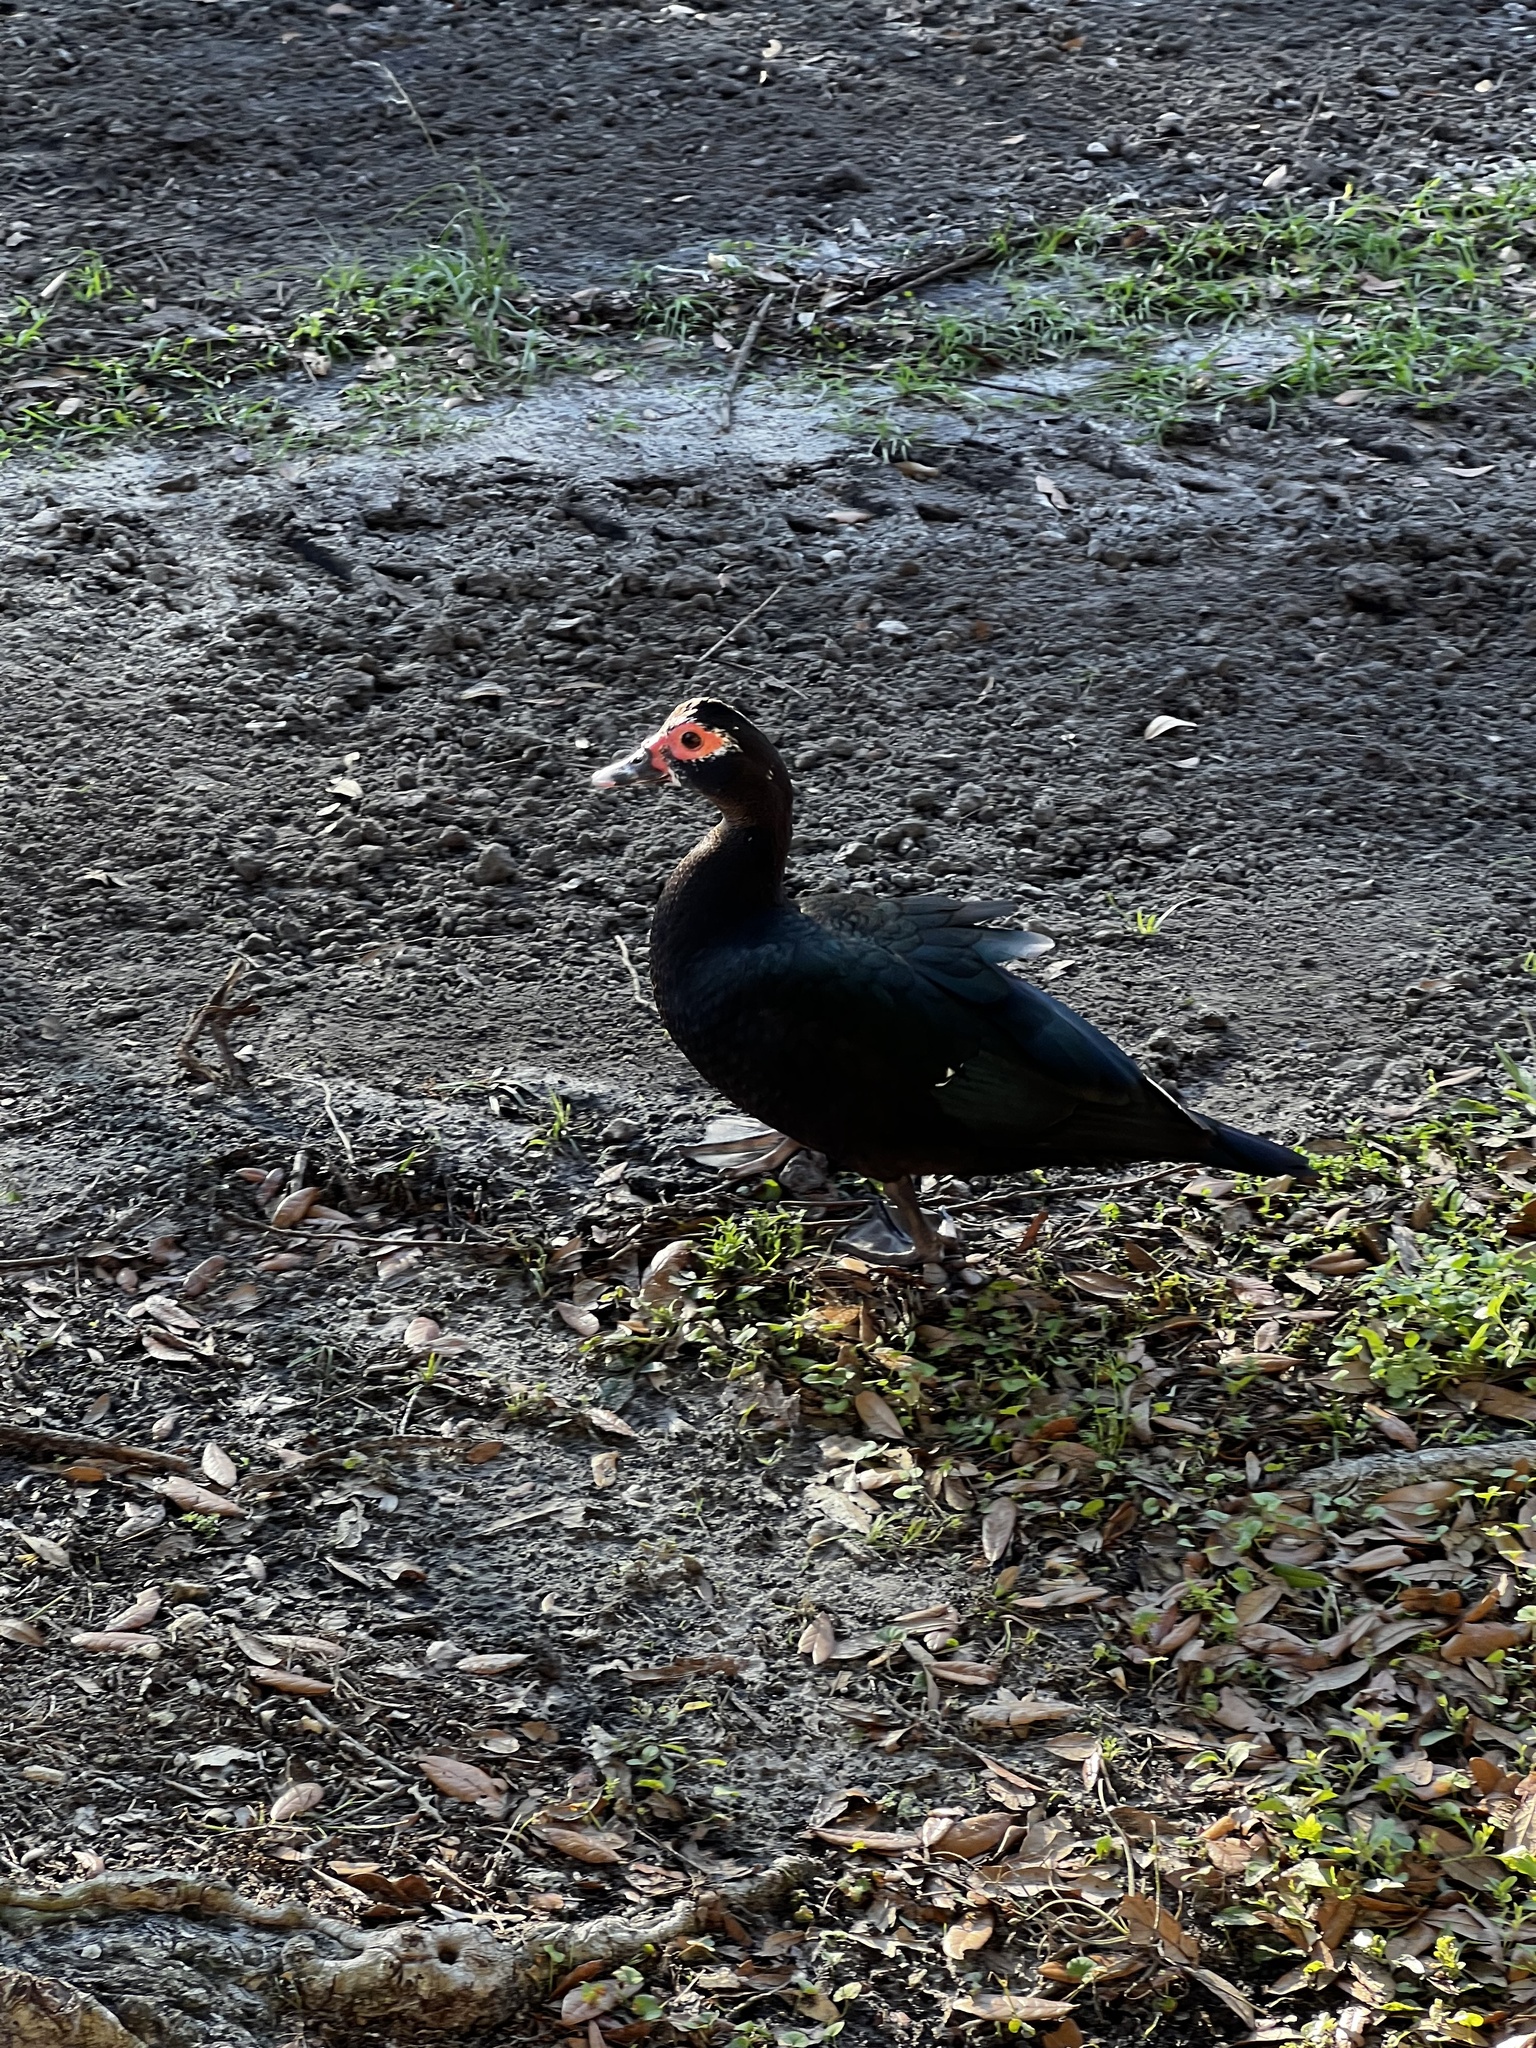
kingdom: Animalia
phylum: Chordata
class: Aves
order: Anseriformes
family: Anatidae
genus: Cairina
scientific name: Cairina moschata
